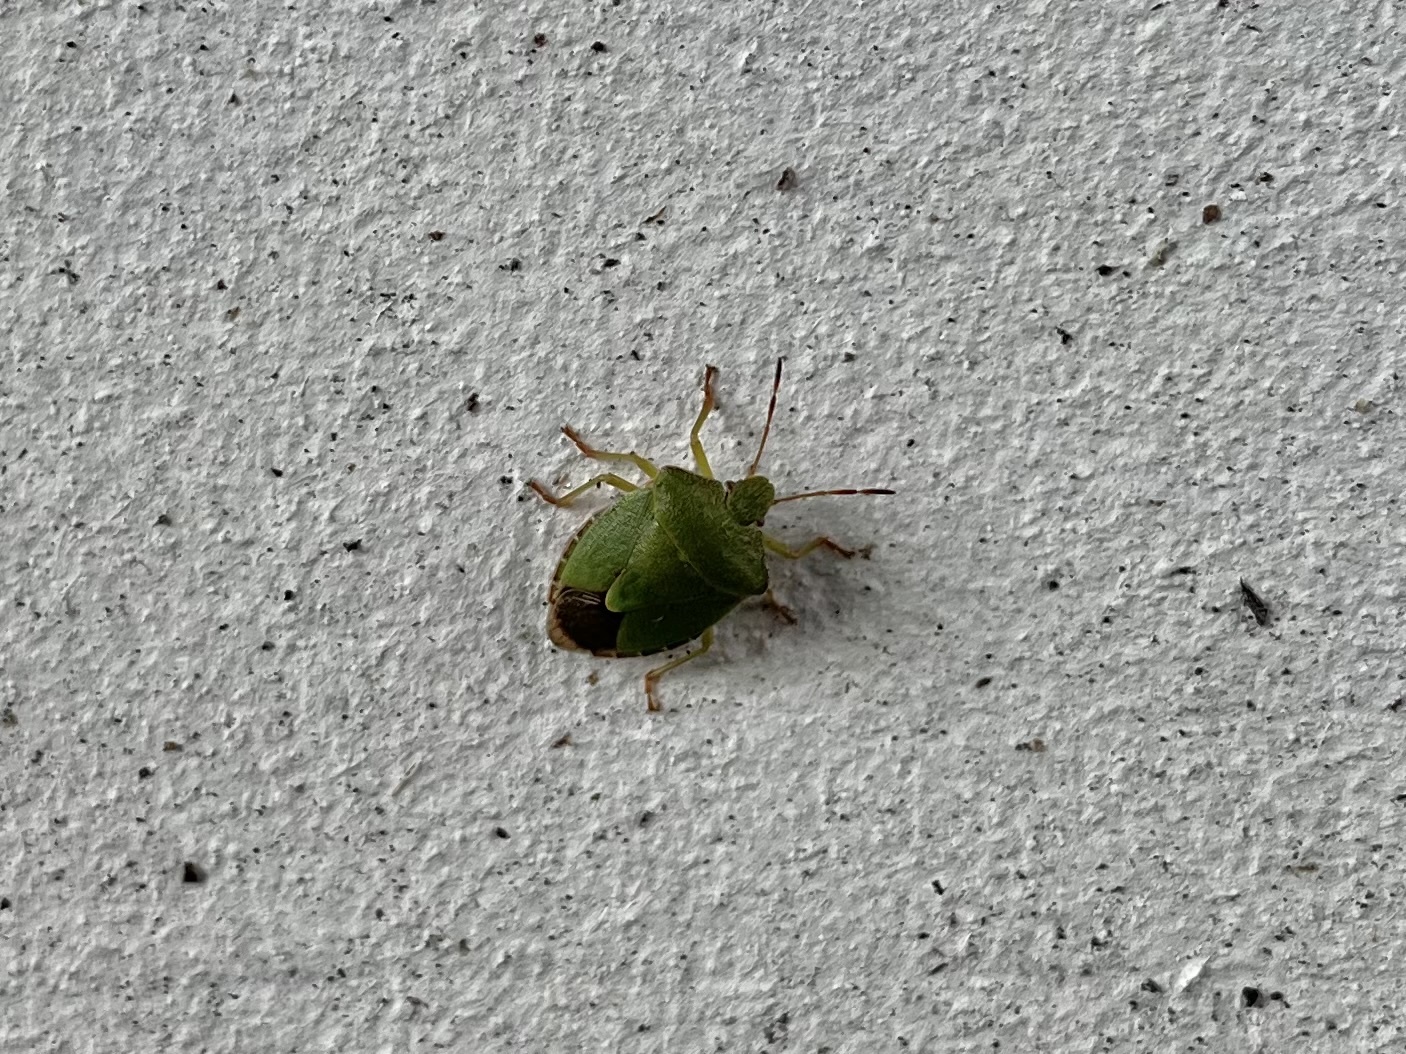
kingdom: Animalia
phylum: Arthropoda
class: Insecta
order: Hemiptera
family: Pentatomidae
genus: Palomena
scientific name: Palomena prasina
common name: Green shieldbug
